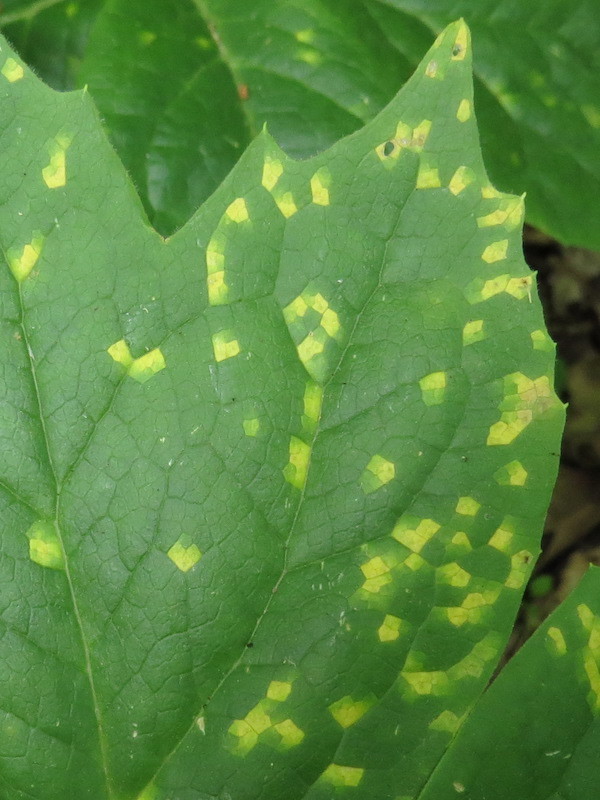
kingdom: Fungi
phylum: Basidiomycota
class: Pucciniomycetes
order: Pucciniales
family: Pucciniaceae
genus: Puccinia
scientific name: Puccinia podophylli
